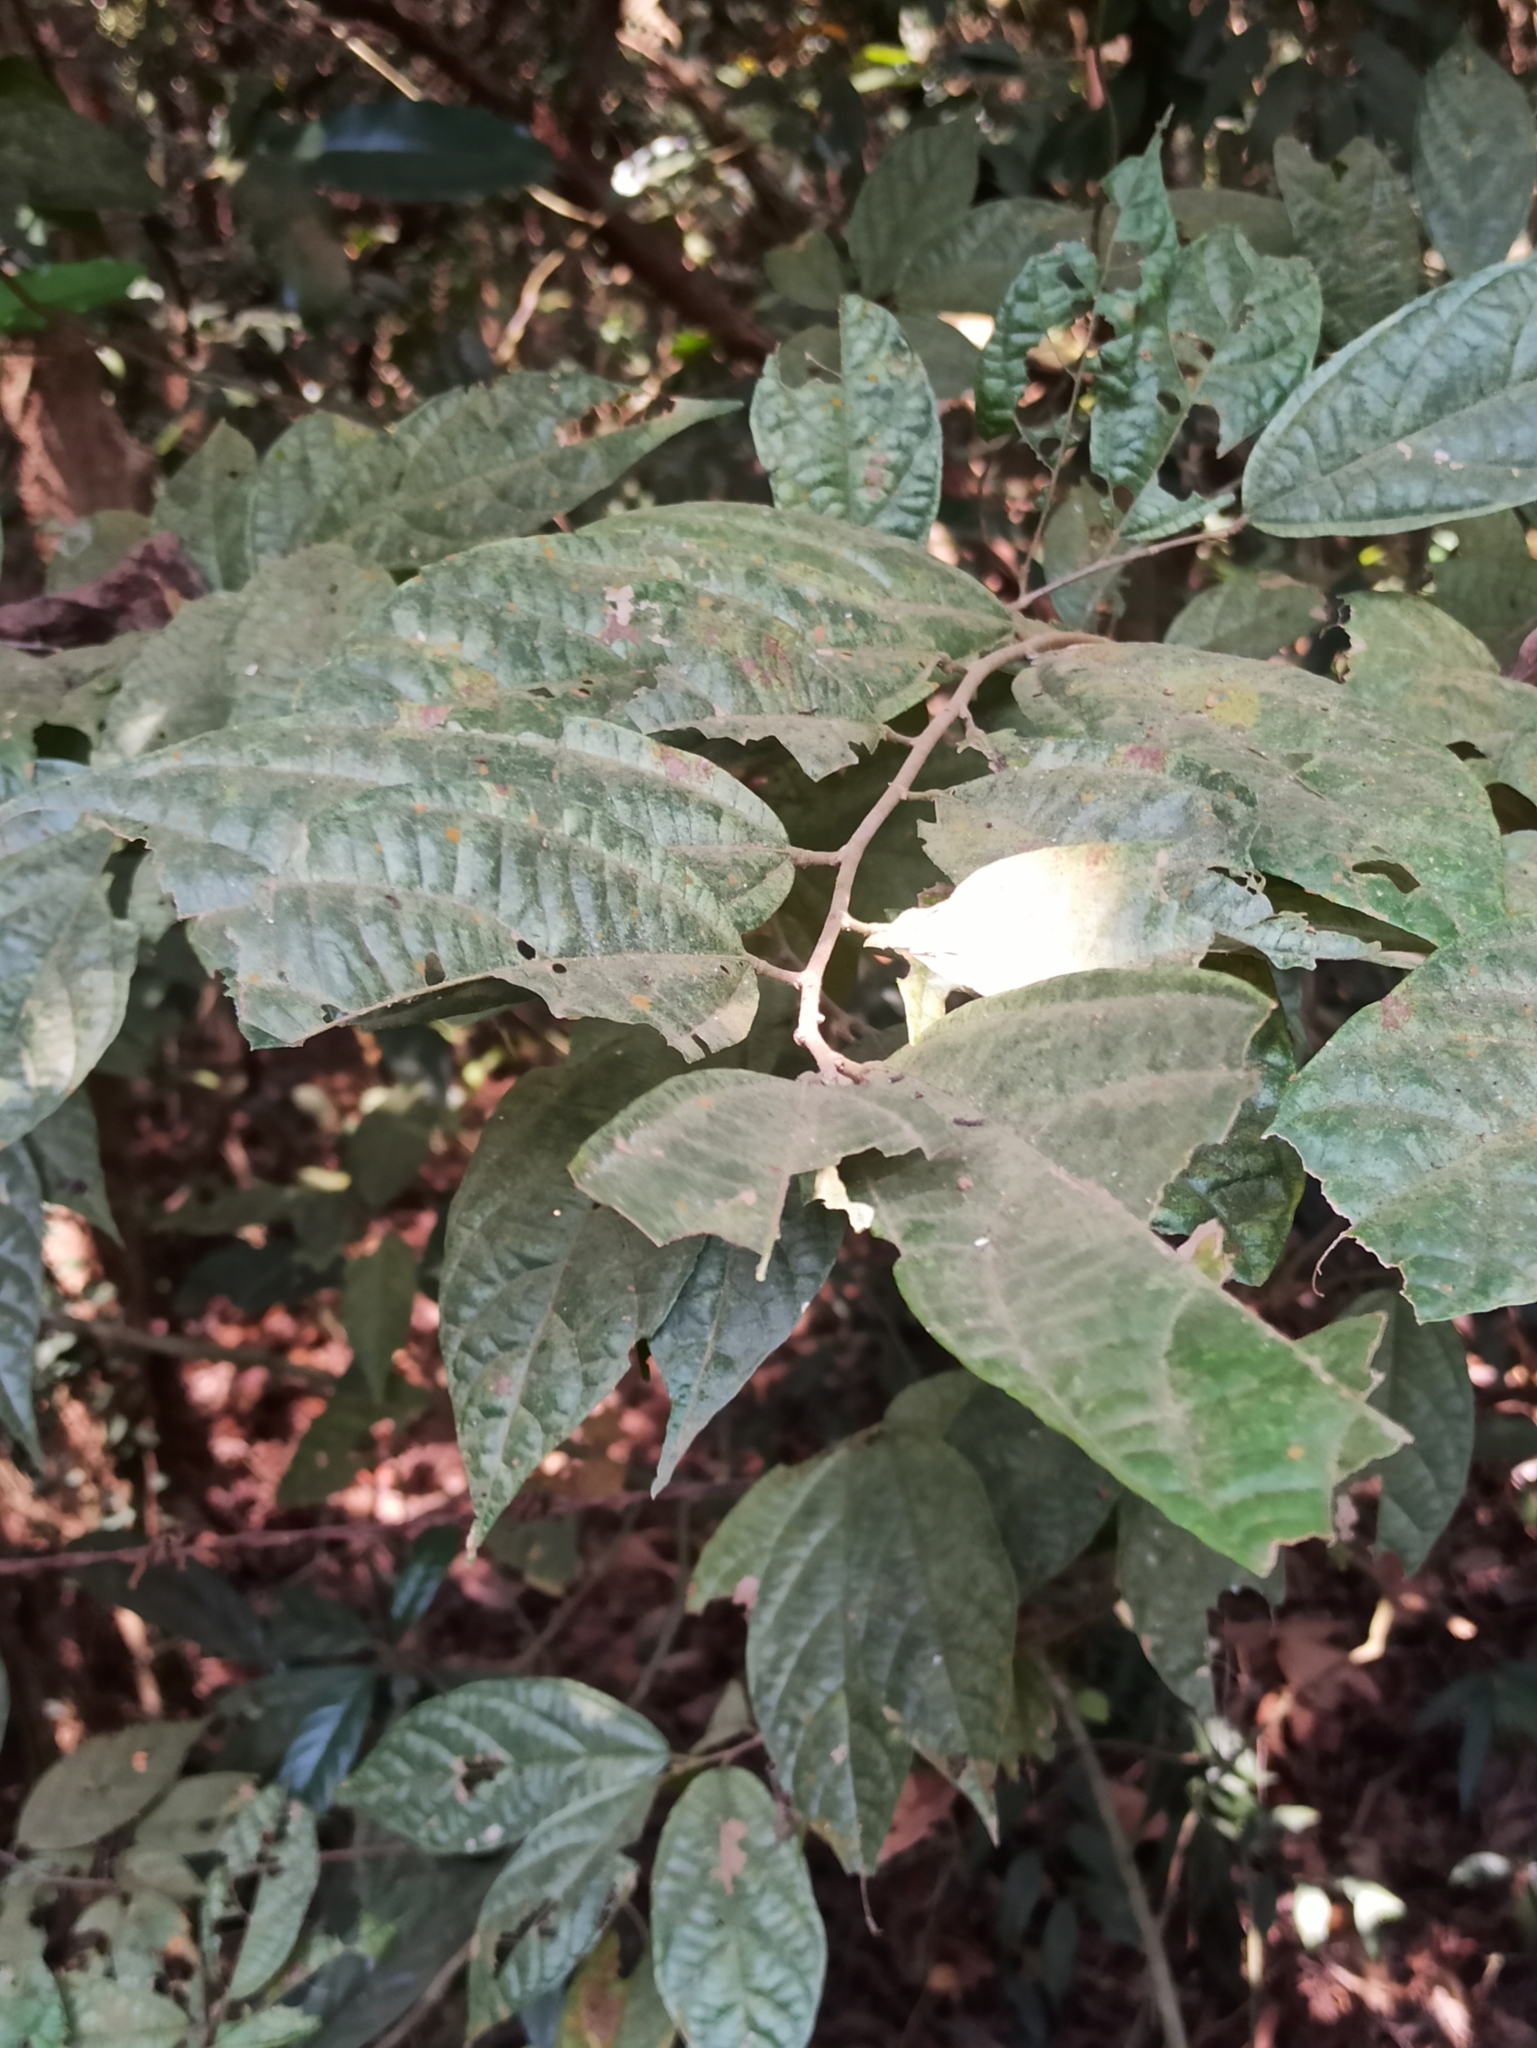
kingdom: Plantae
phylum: Tracheophyta
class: Magnoliopsida
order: Malvales
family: Malvaceae
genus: Microcos
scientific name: Microcos paniculata
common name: Microcos
